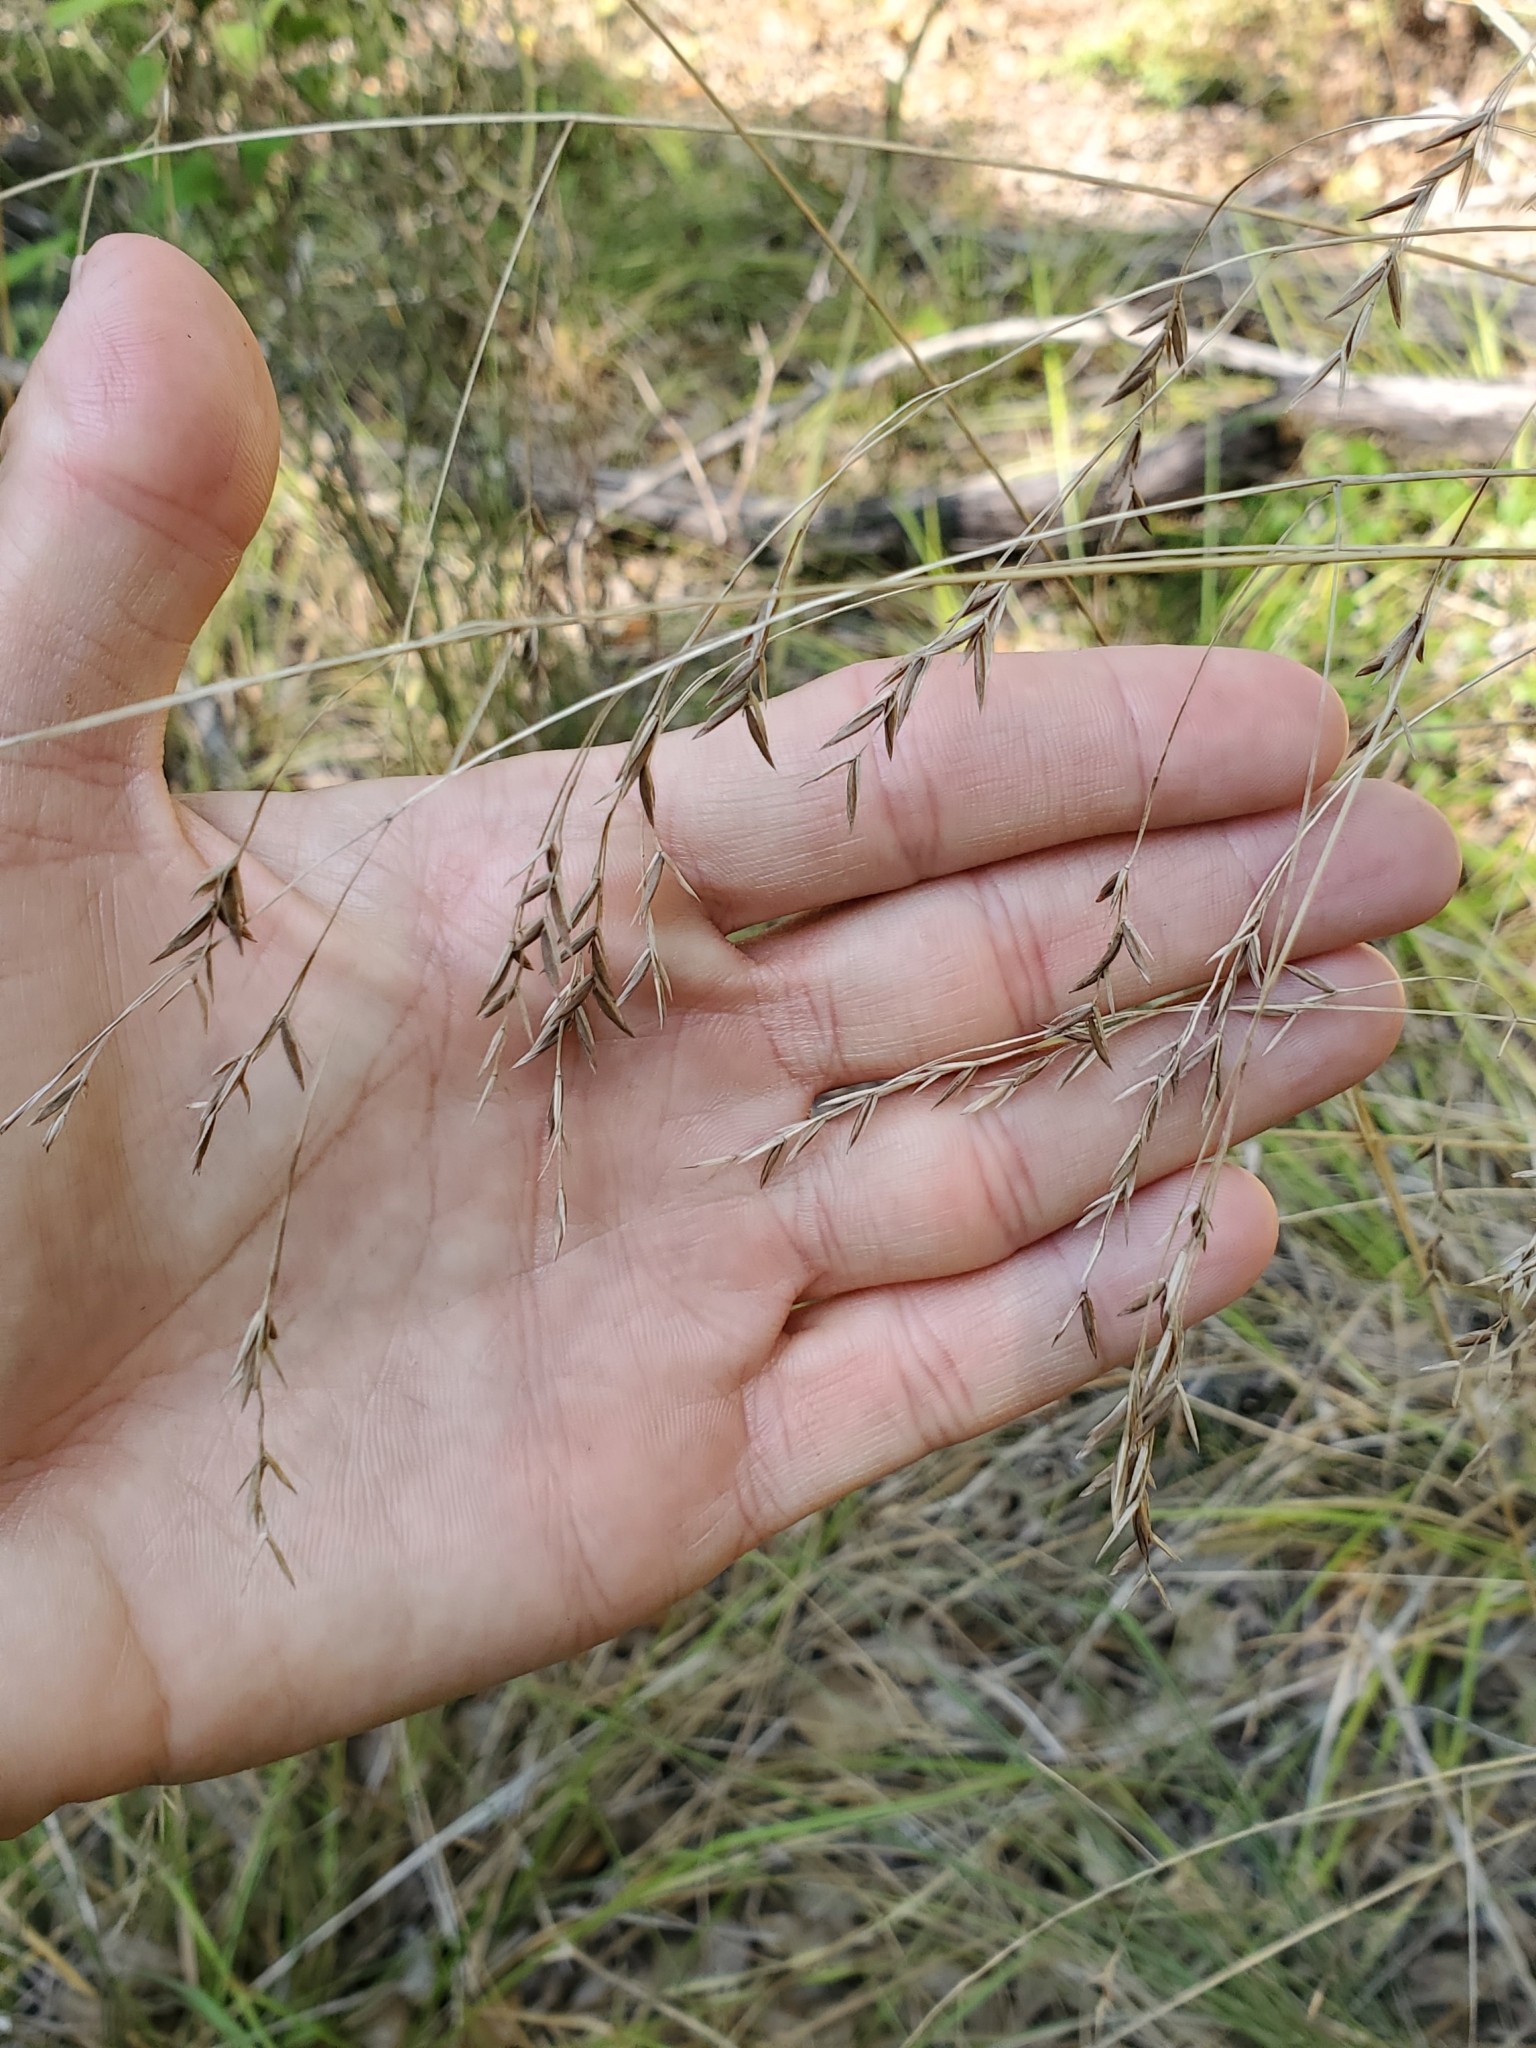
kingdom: Plantae
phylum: Tracheophyta
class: Liliopsida
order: Poales
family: Poaceae
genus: Festuca
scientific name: Festuca versuta
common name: Texas fescue
